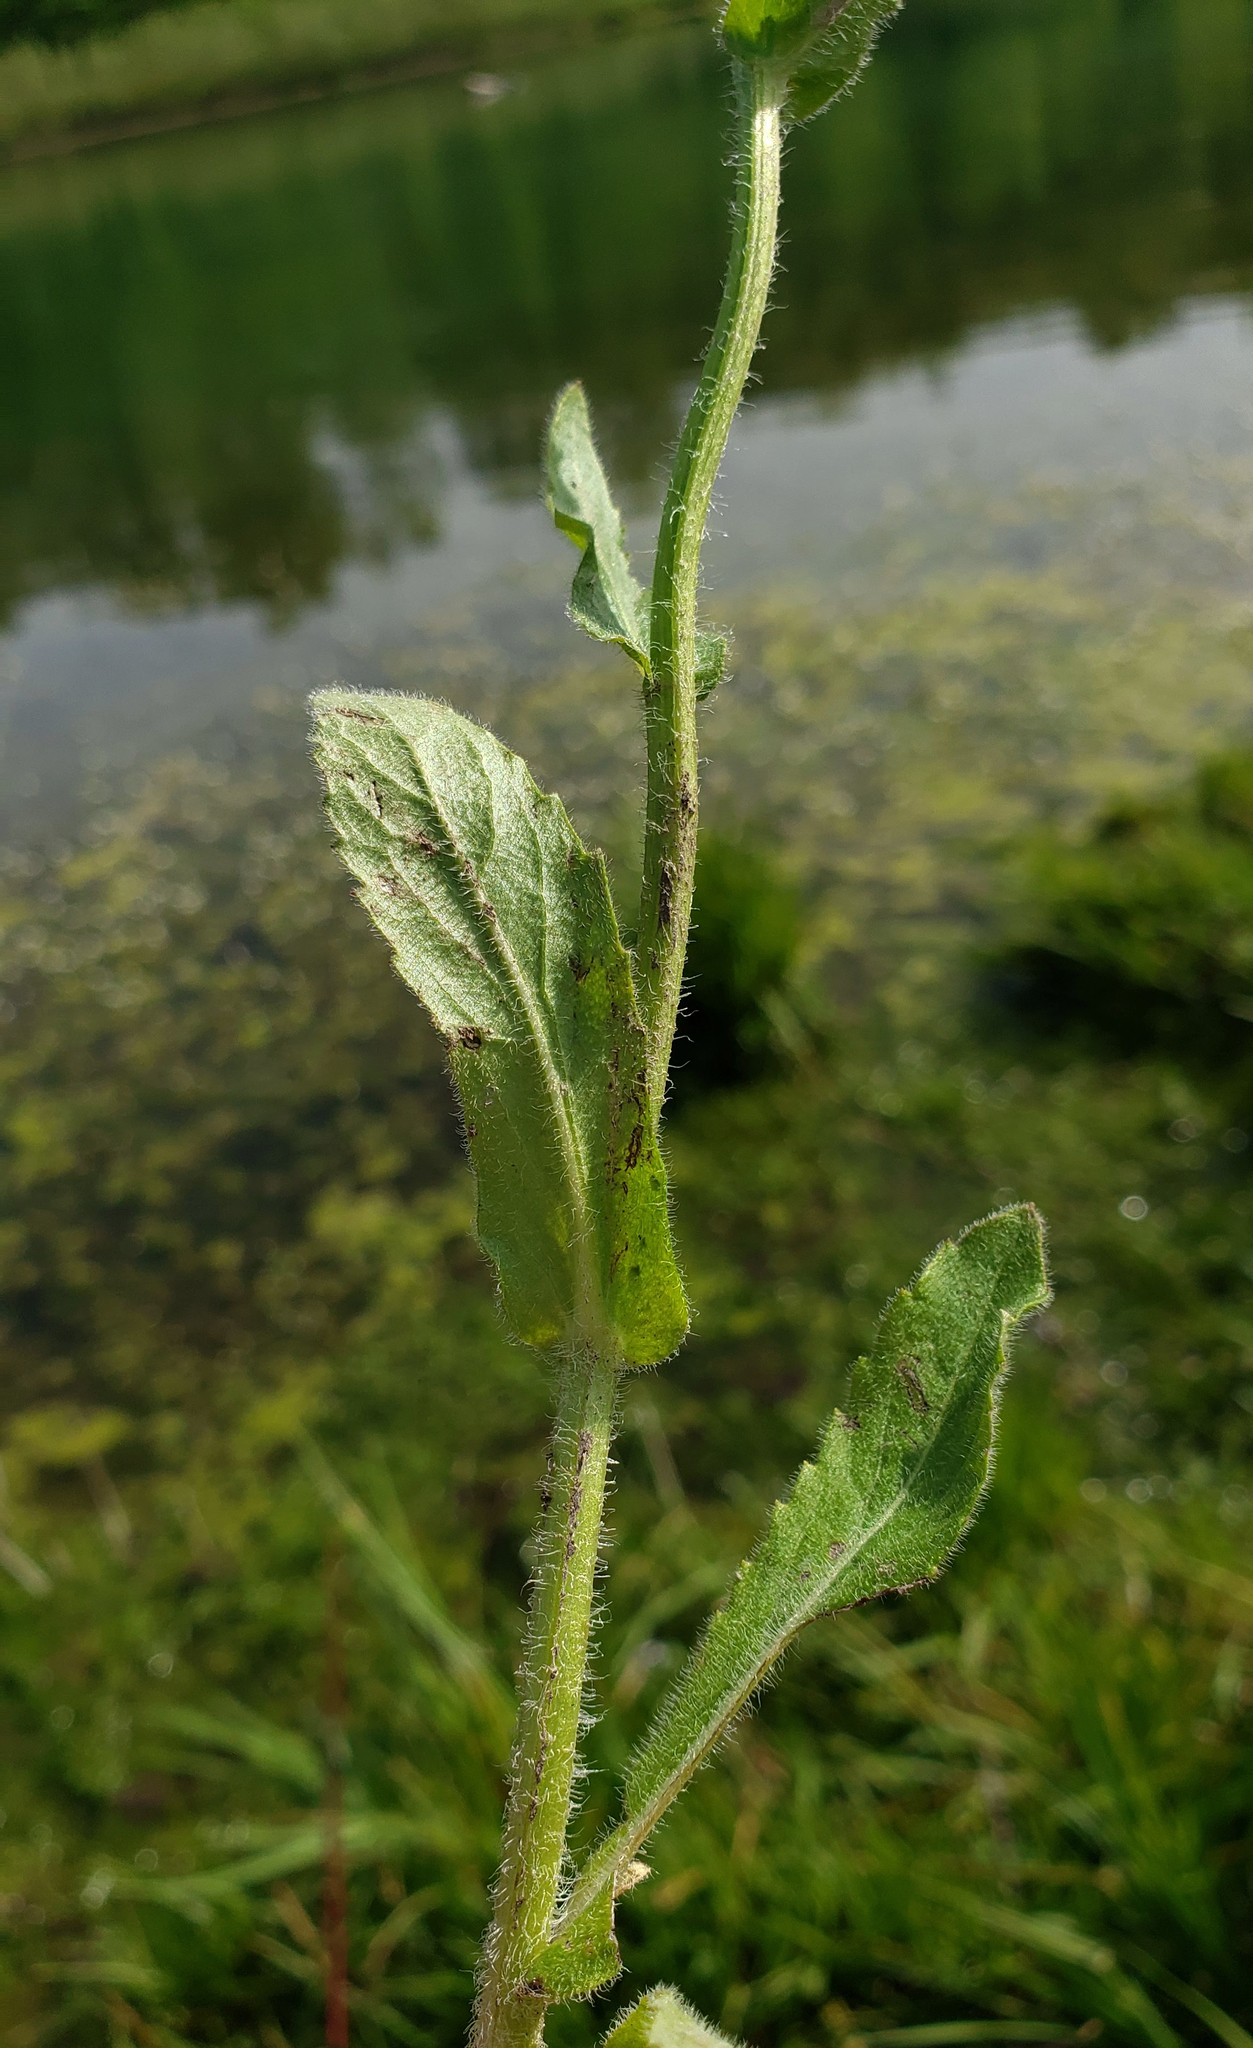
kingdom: Plantae
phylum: Tracheophyta
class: Magnoliopsida
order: Asterales
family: Asteraceae
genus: Erigeron
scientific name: Erigeron philadelphicus
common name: Robin's-plantain
